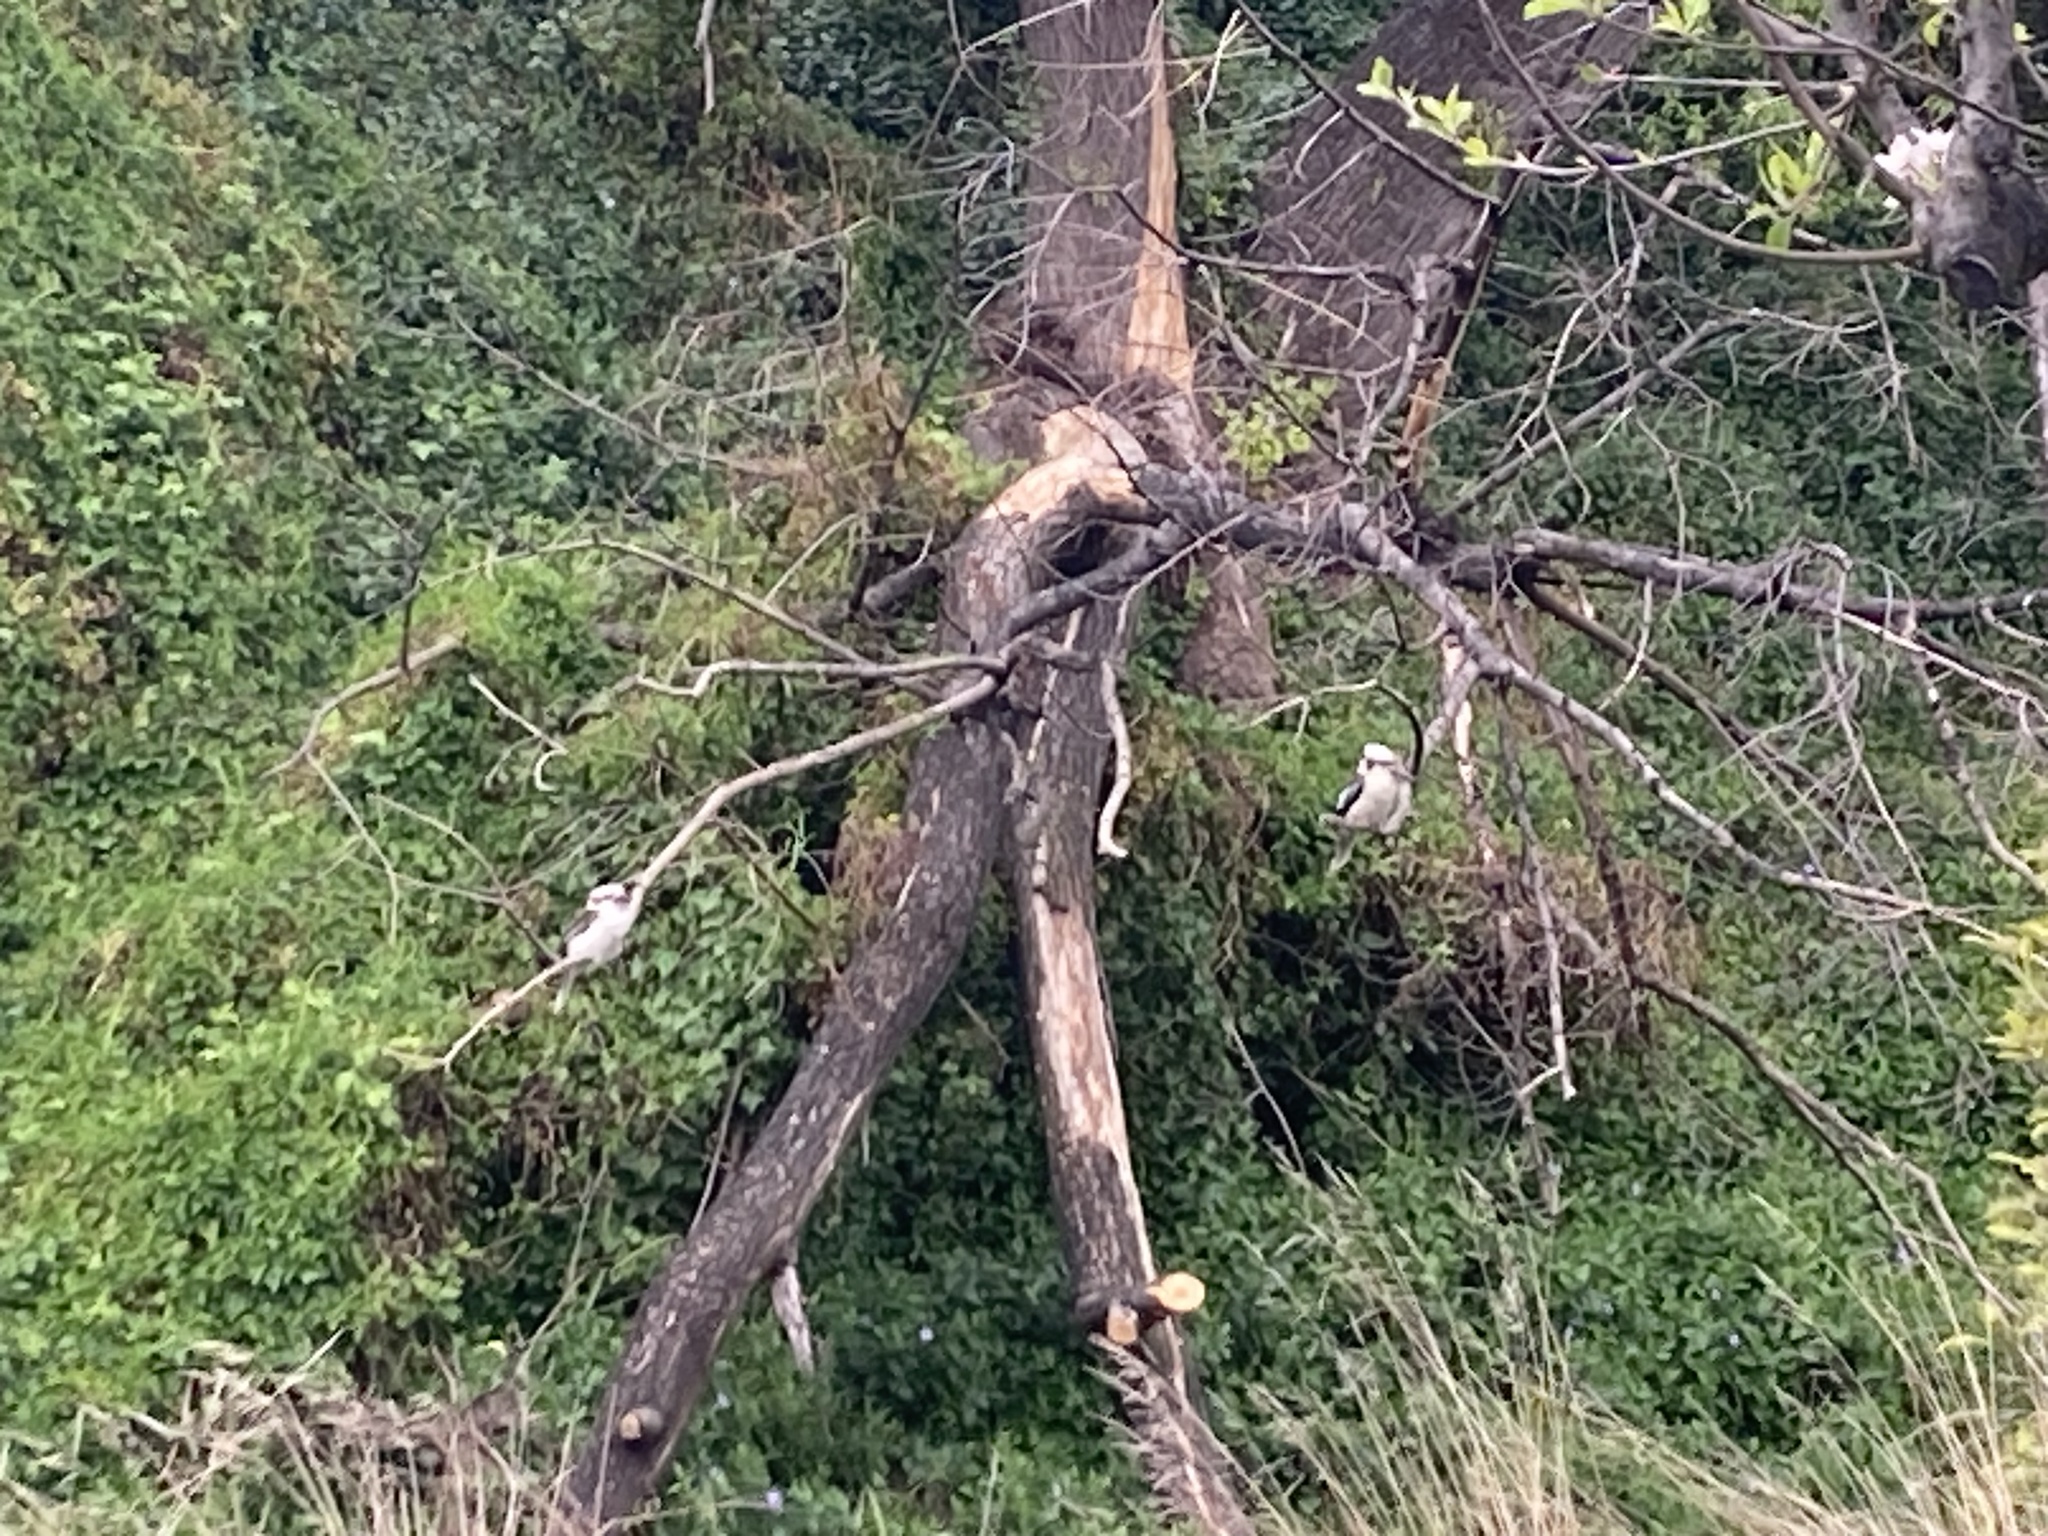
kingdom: Animalia
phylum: Chordata
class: Aves
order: Coraciiformes
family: Alcedinidae
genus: Dacelo
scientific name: Dacelo novaeguineae
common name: Laughing kookaburra
